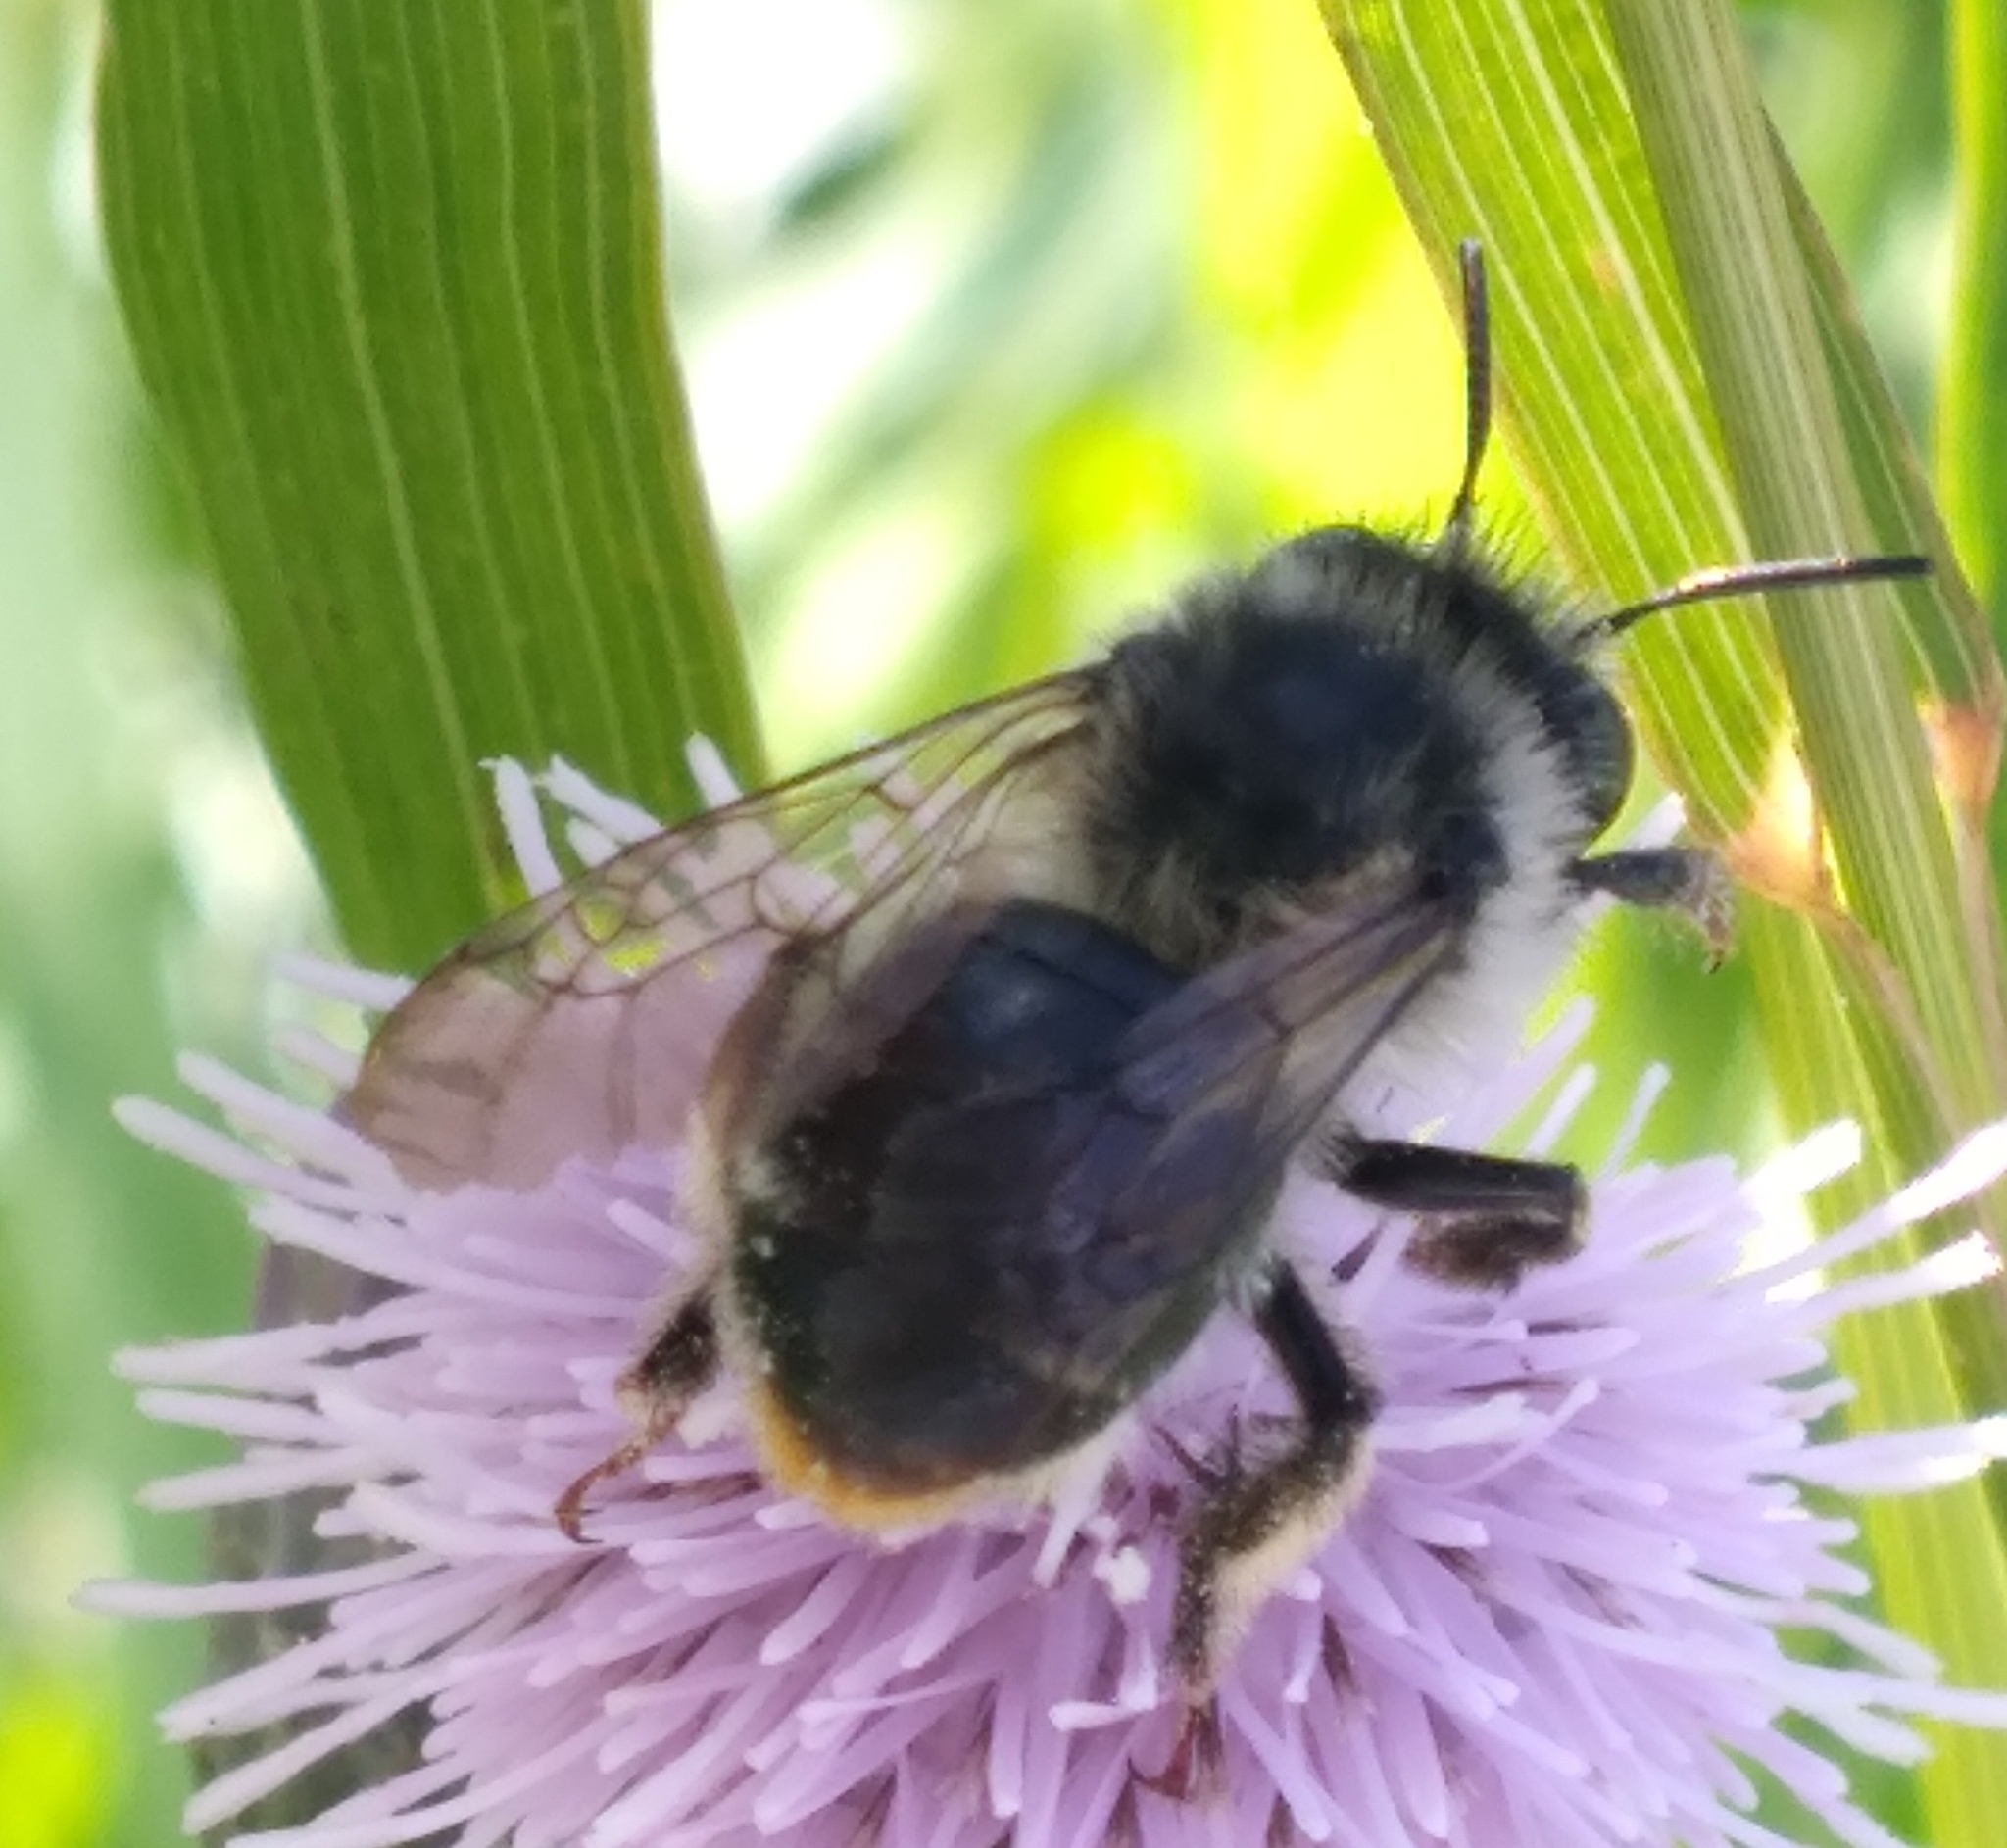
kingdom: Animalia
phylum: Arthropoda
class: Insecta
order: Hymenoptera
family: Apidae
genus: Anthophora
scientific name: Anthophora terminalis
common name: Orange-tipped wood-digger bee
